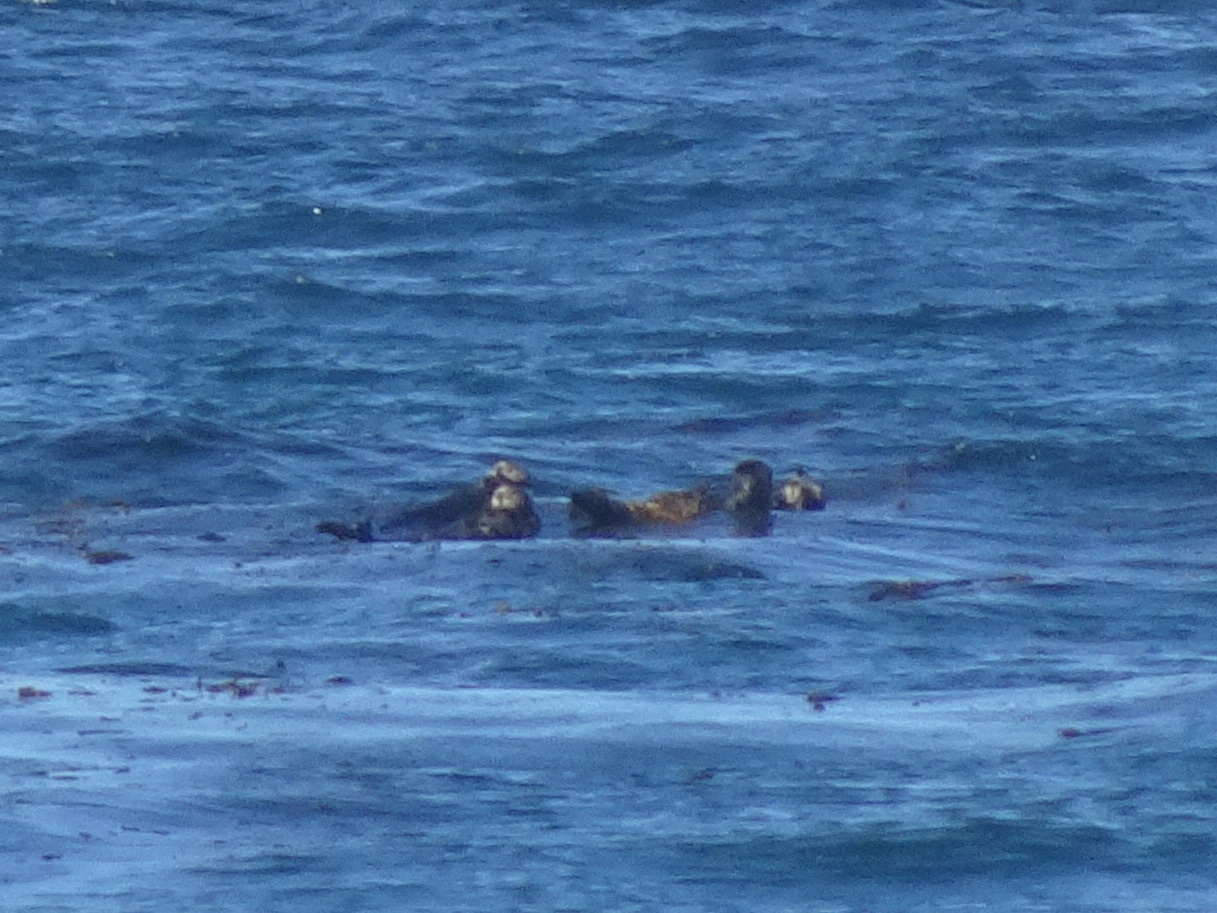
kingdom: Animalia
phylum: Chordata
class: Mammalia
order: Carnivora
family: Mustelidae
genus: Enhydra
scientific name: Enhydra lutris
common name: Sea otter
